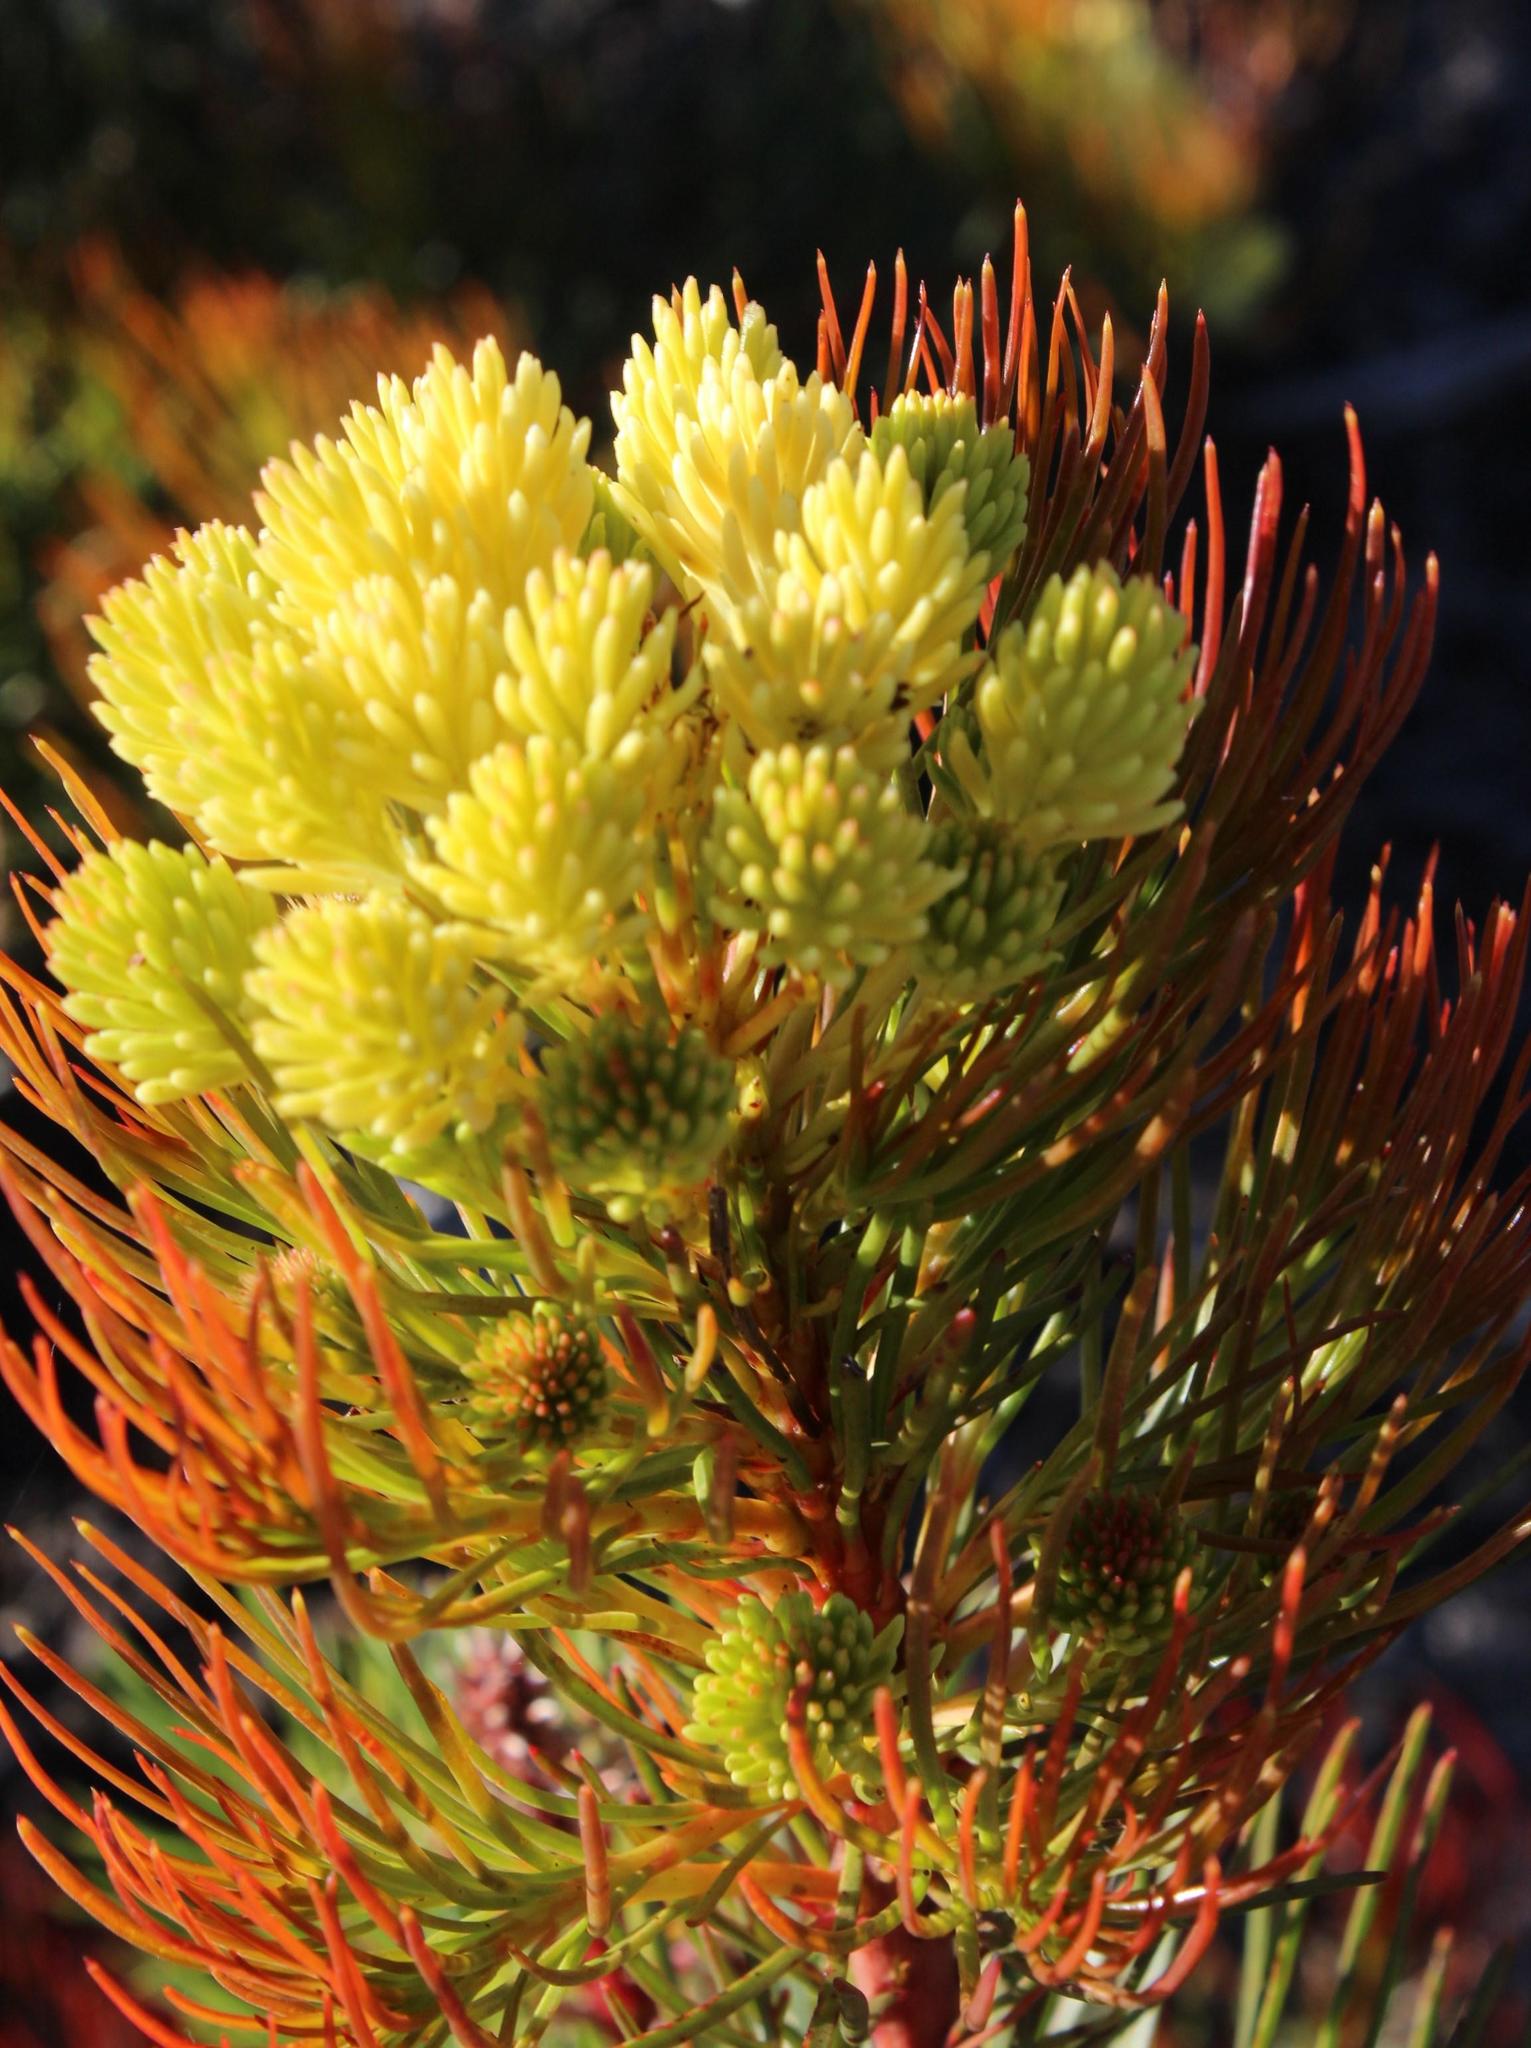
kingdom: Plantae
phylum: Tracheophyta
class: Magnoliopsida
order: Proteales
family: Proteaceae
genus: Aulax
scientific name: Aulax cancellata
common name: Channel-leaf featherbush
